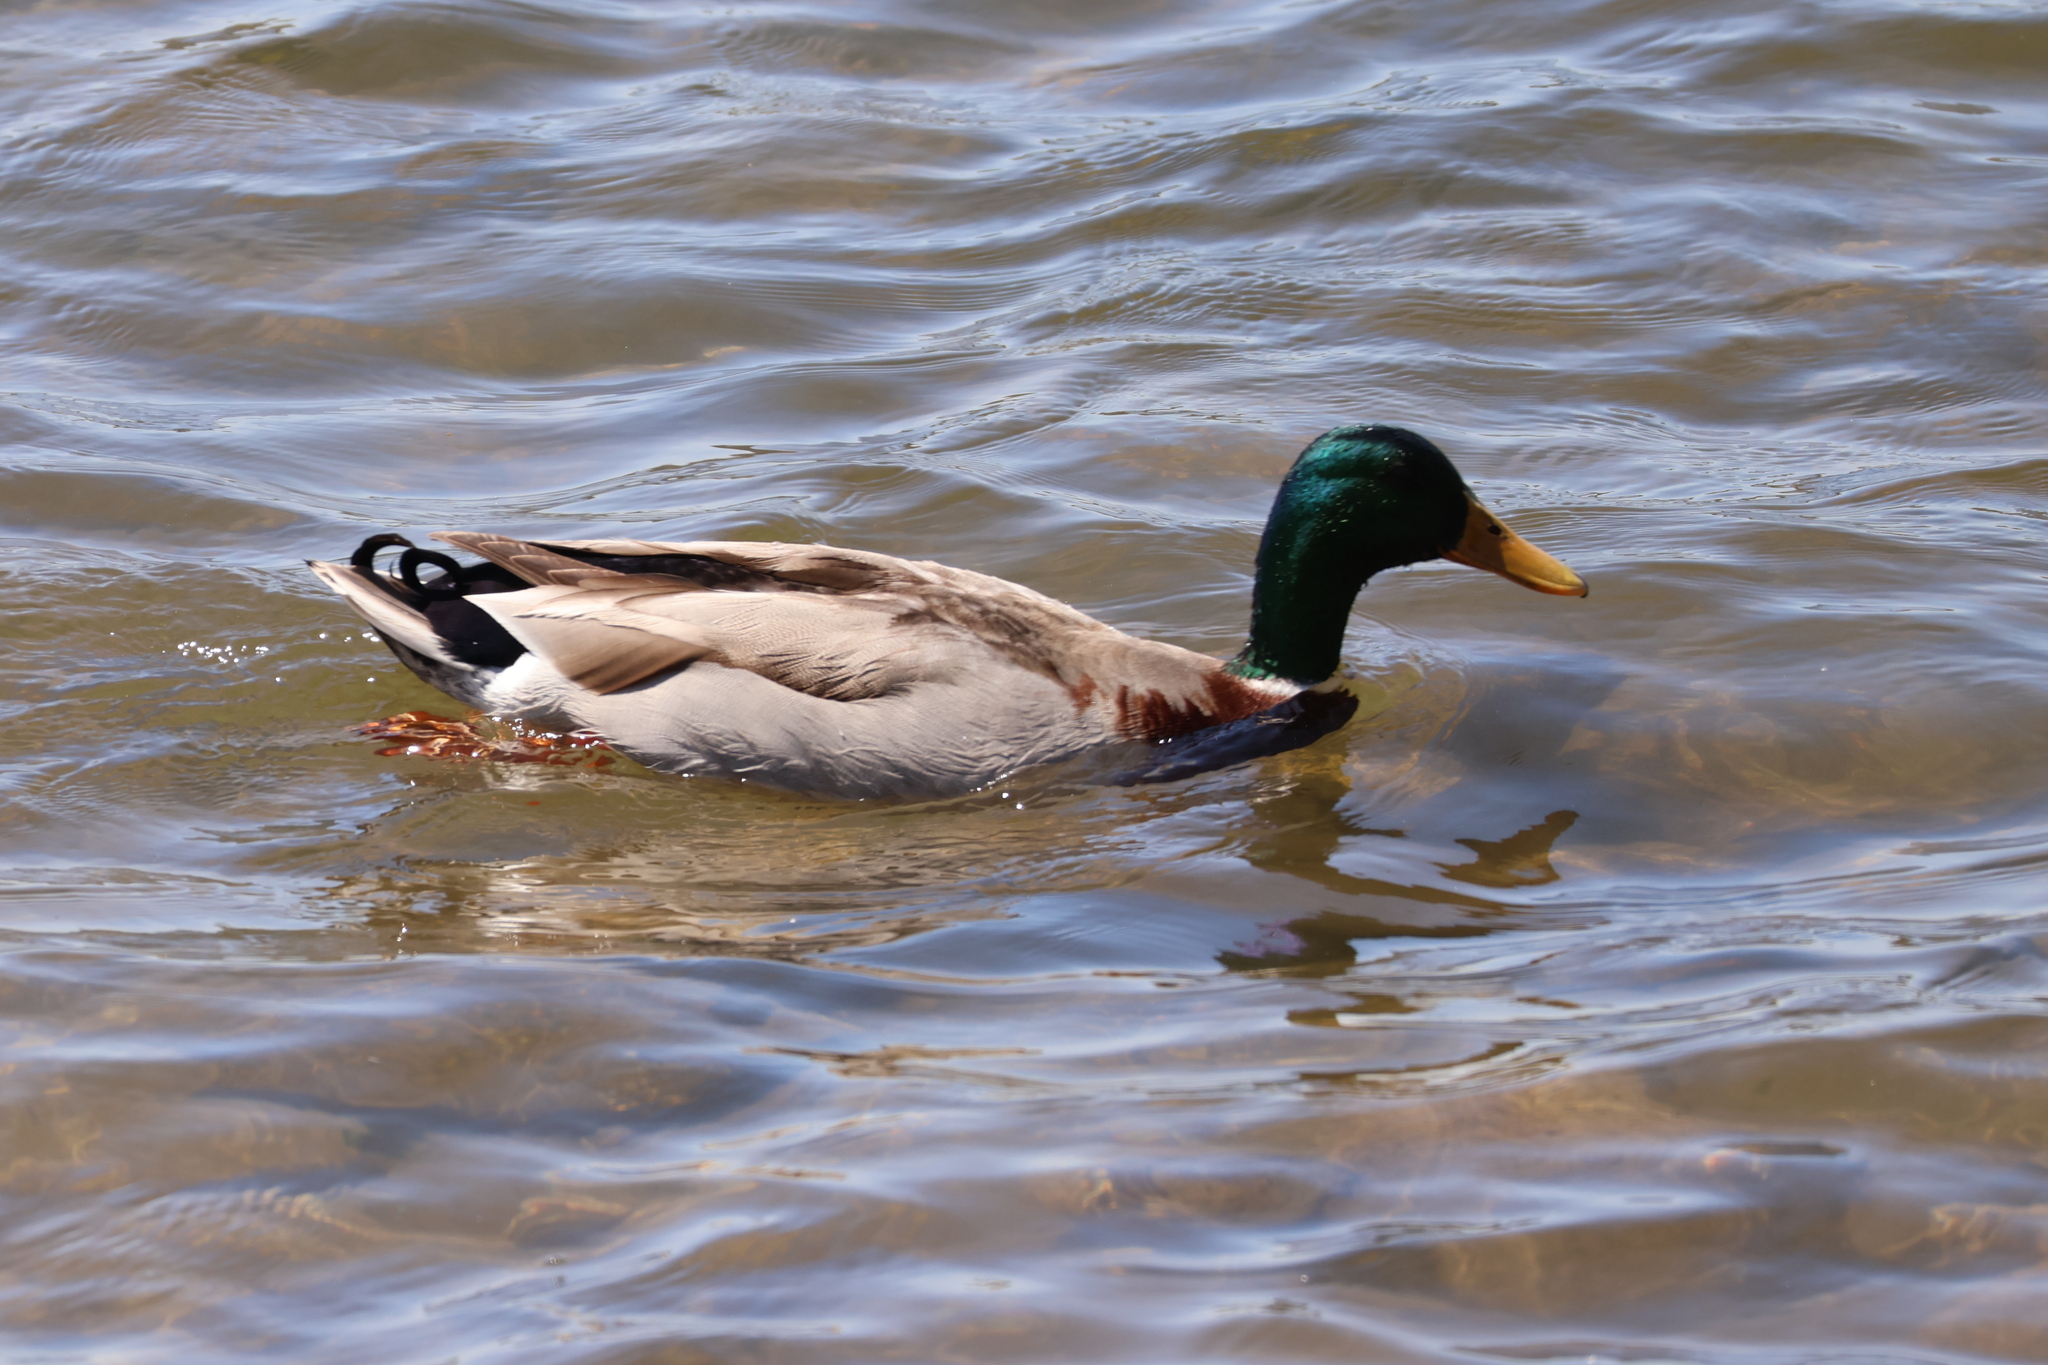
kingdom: Animalia
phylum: Chordata
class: Aves
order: Anseriformes
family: Anatidae
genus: Anas
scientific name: Anas platyrhynchos
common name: Mallard
